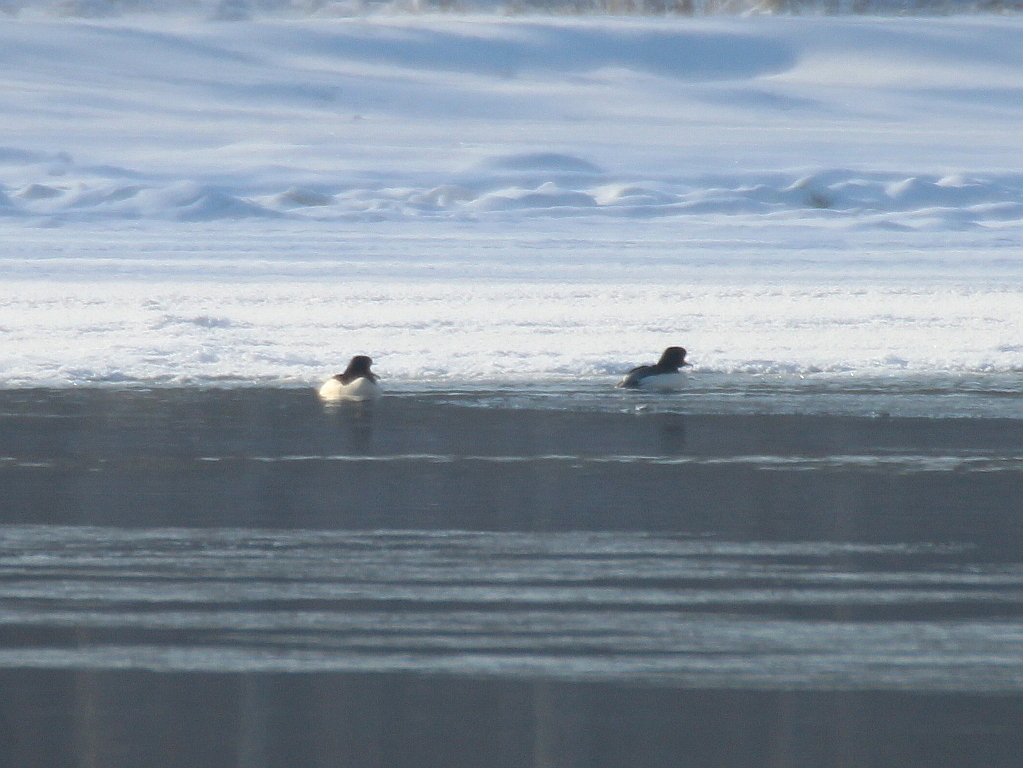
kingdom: Animalia
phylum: Chordata
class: Aves
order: Anseriformes
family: Anatidae
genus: Mergus
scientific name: Mergus merganser
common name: Common merganser
